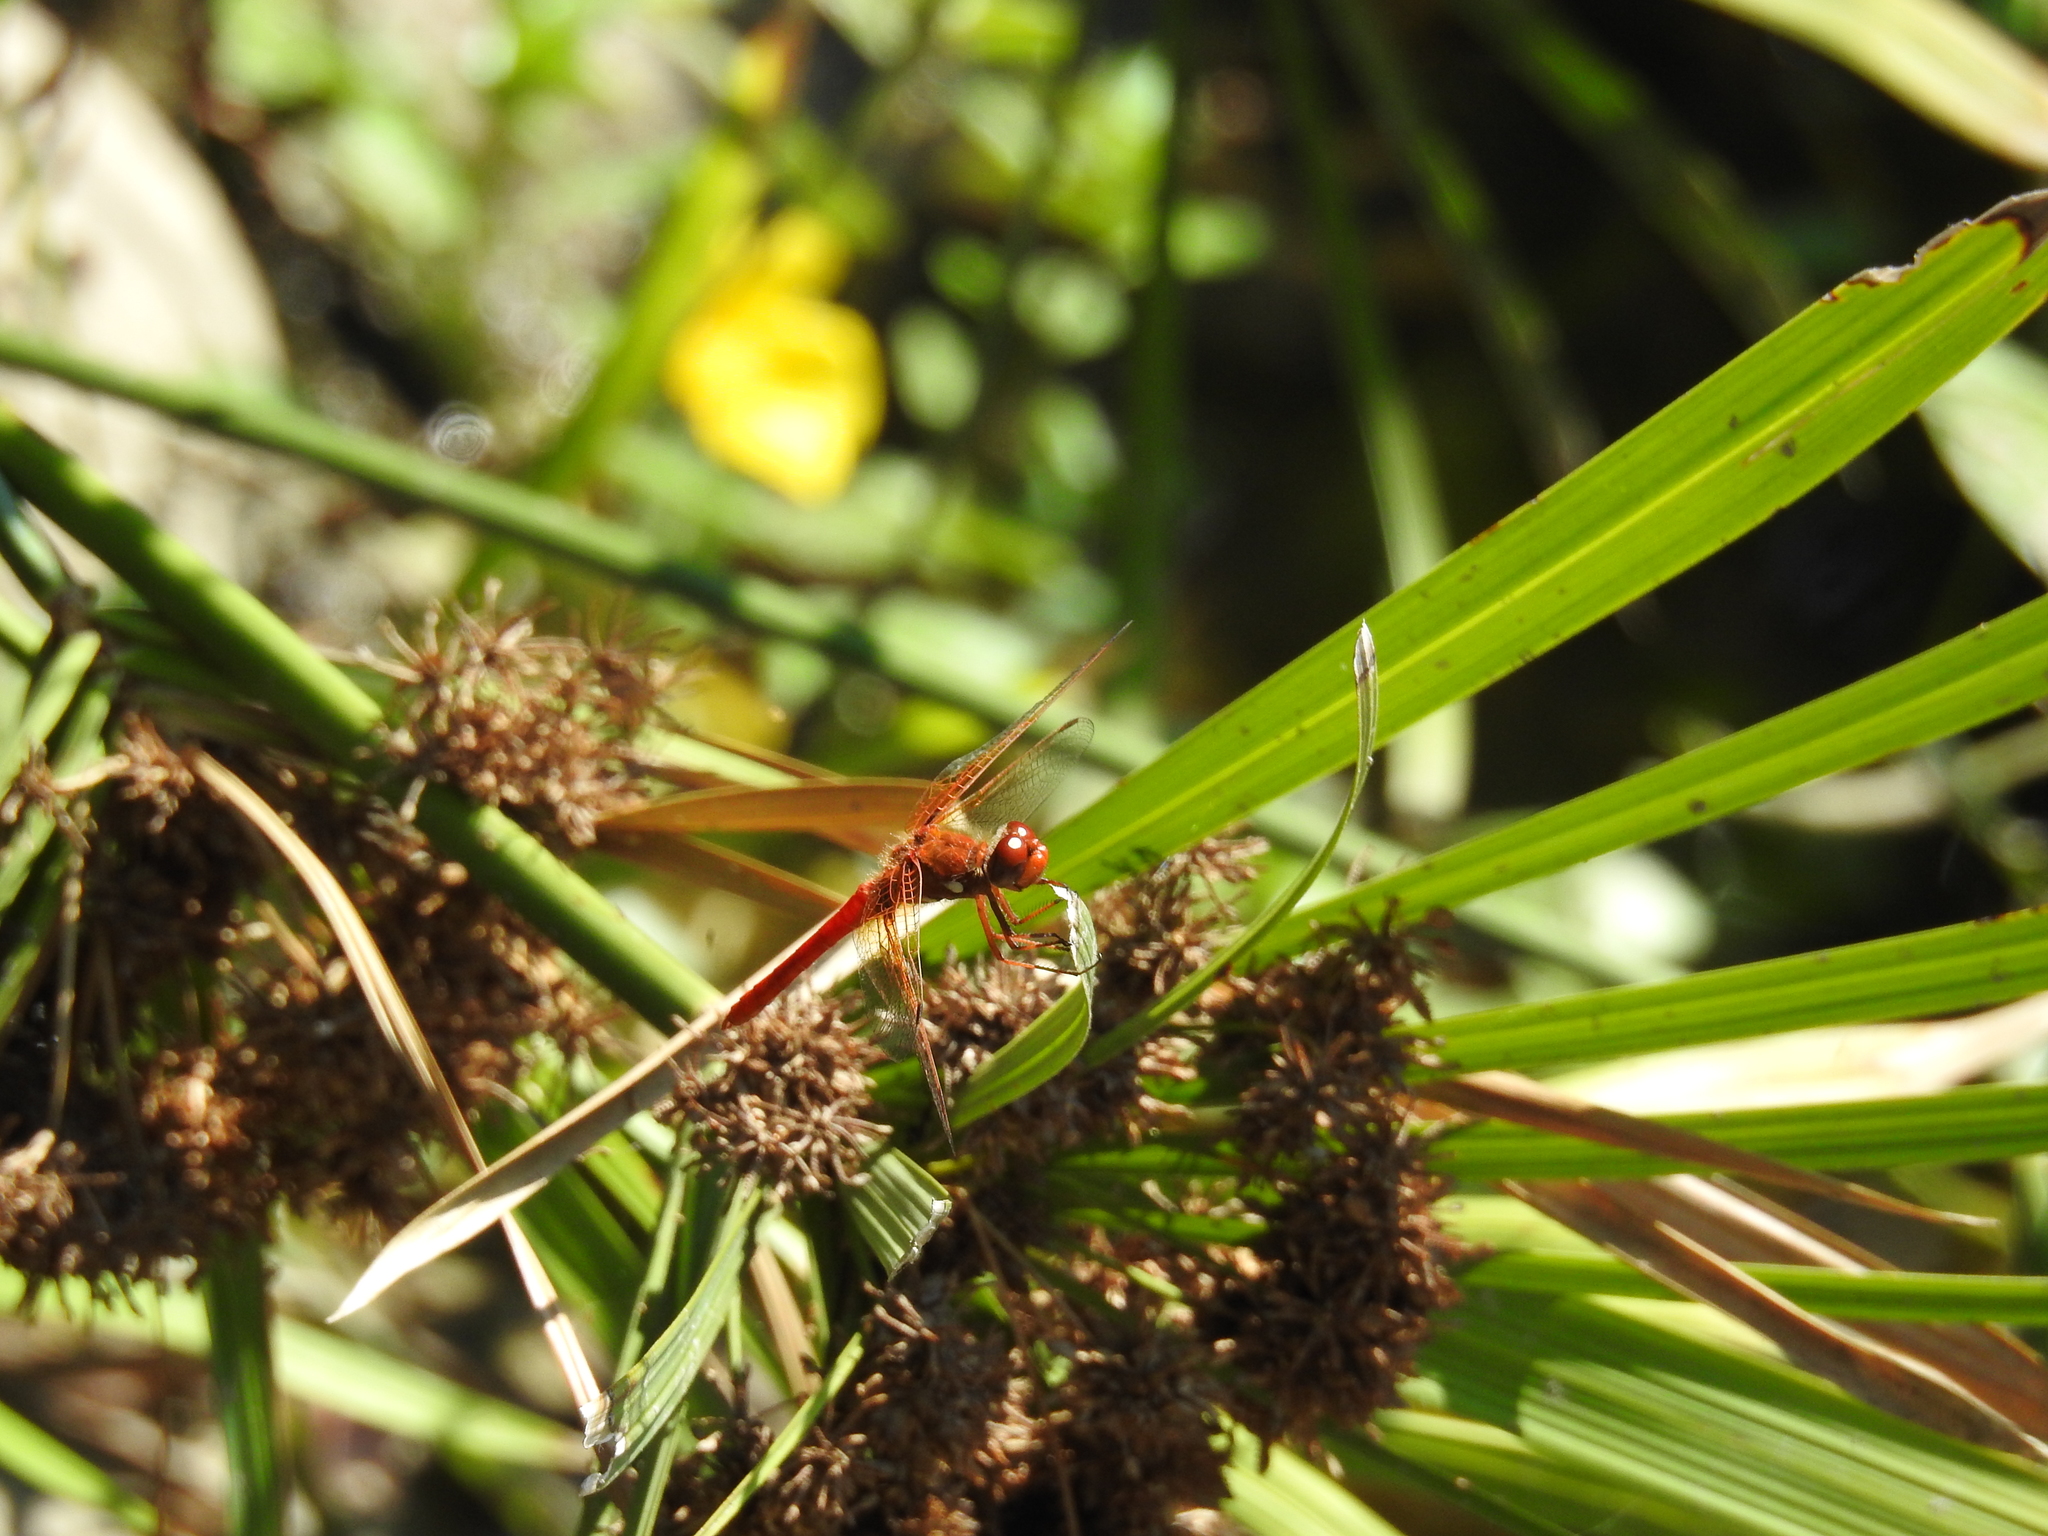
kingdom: Animalia
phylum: Arthropoda
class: Insecta
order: Odonata
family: Libellulidae
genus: Sympetrum
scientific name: Sympetrum illotum
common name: Cardinal meadowhawk
